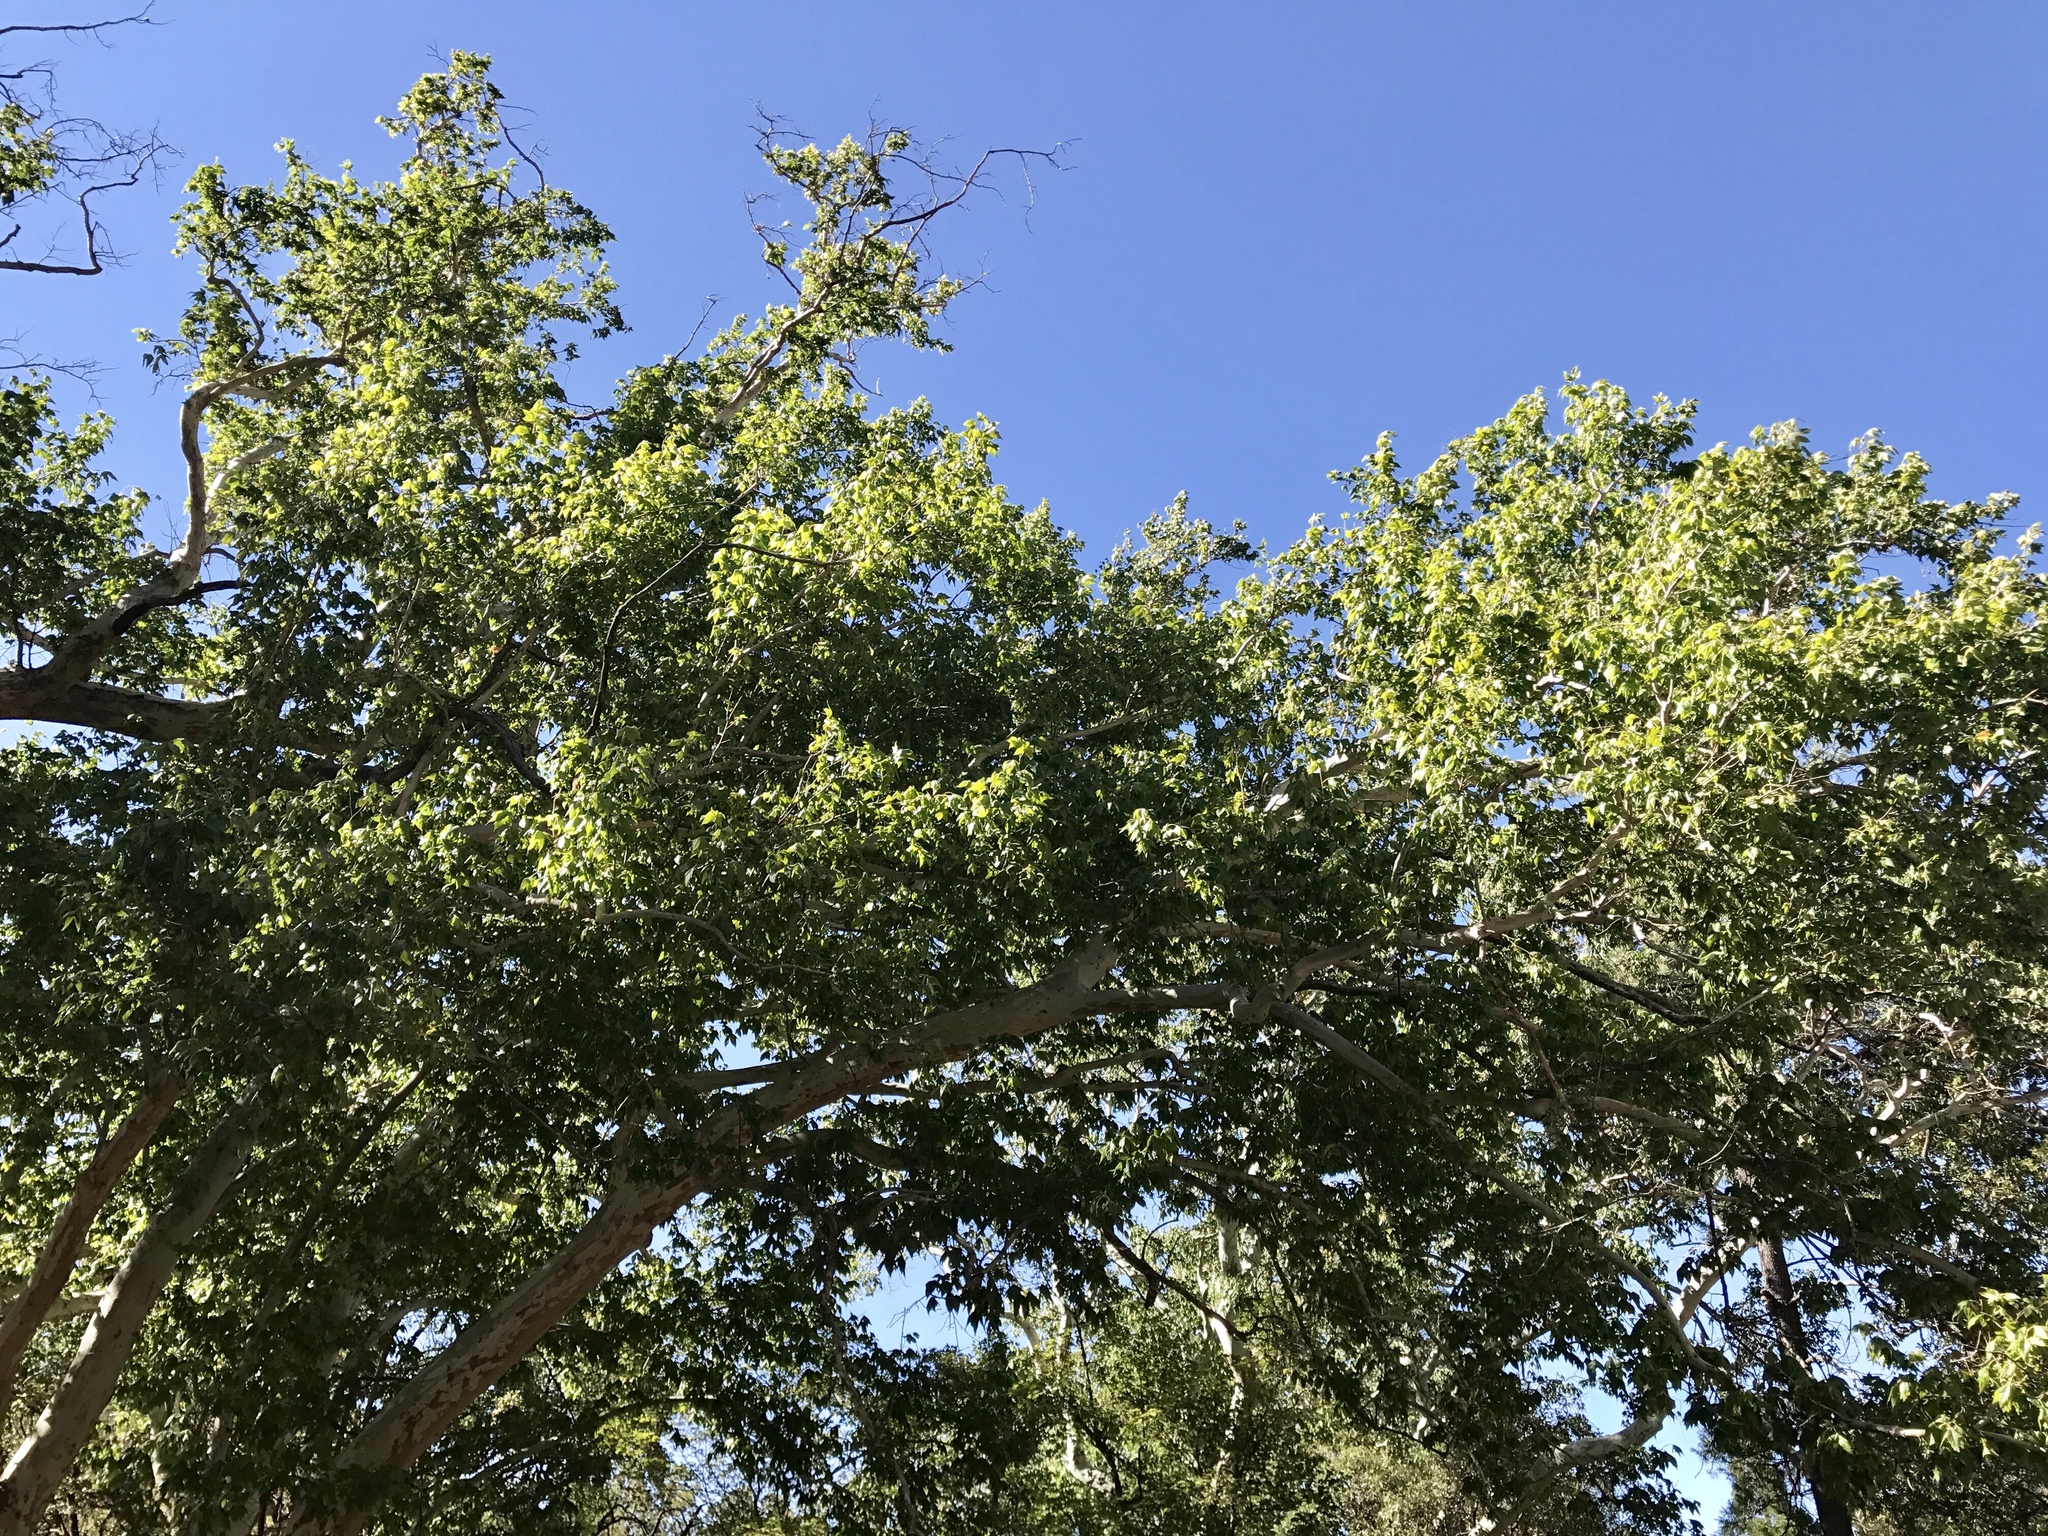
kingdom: Plantae
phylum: Tracheophyta
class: Magnoliopsida
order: Proteales
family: Platanaceae
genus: Platanus
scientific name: Platanus wrightii
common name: Arizona sycamore
